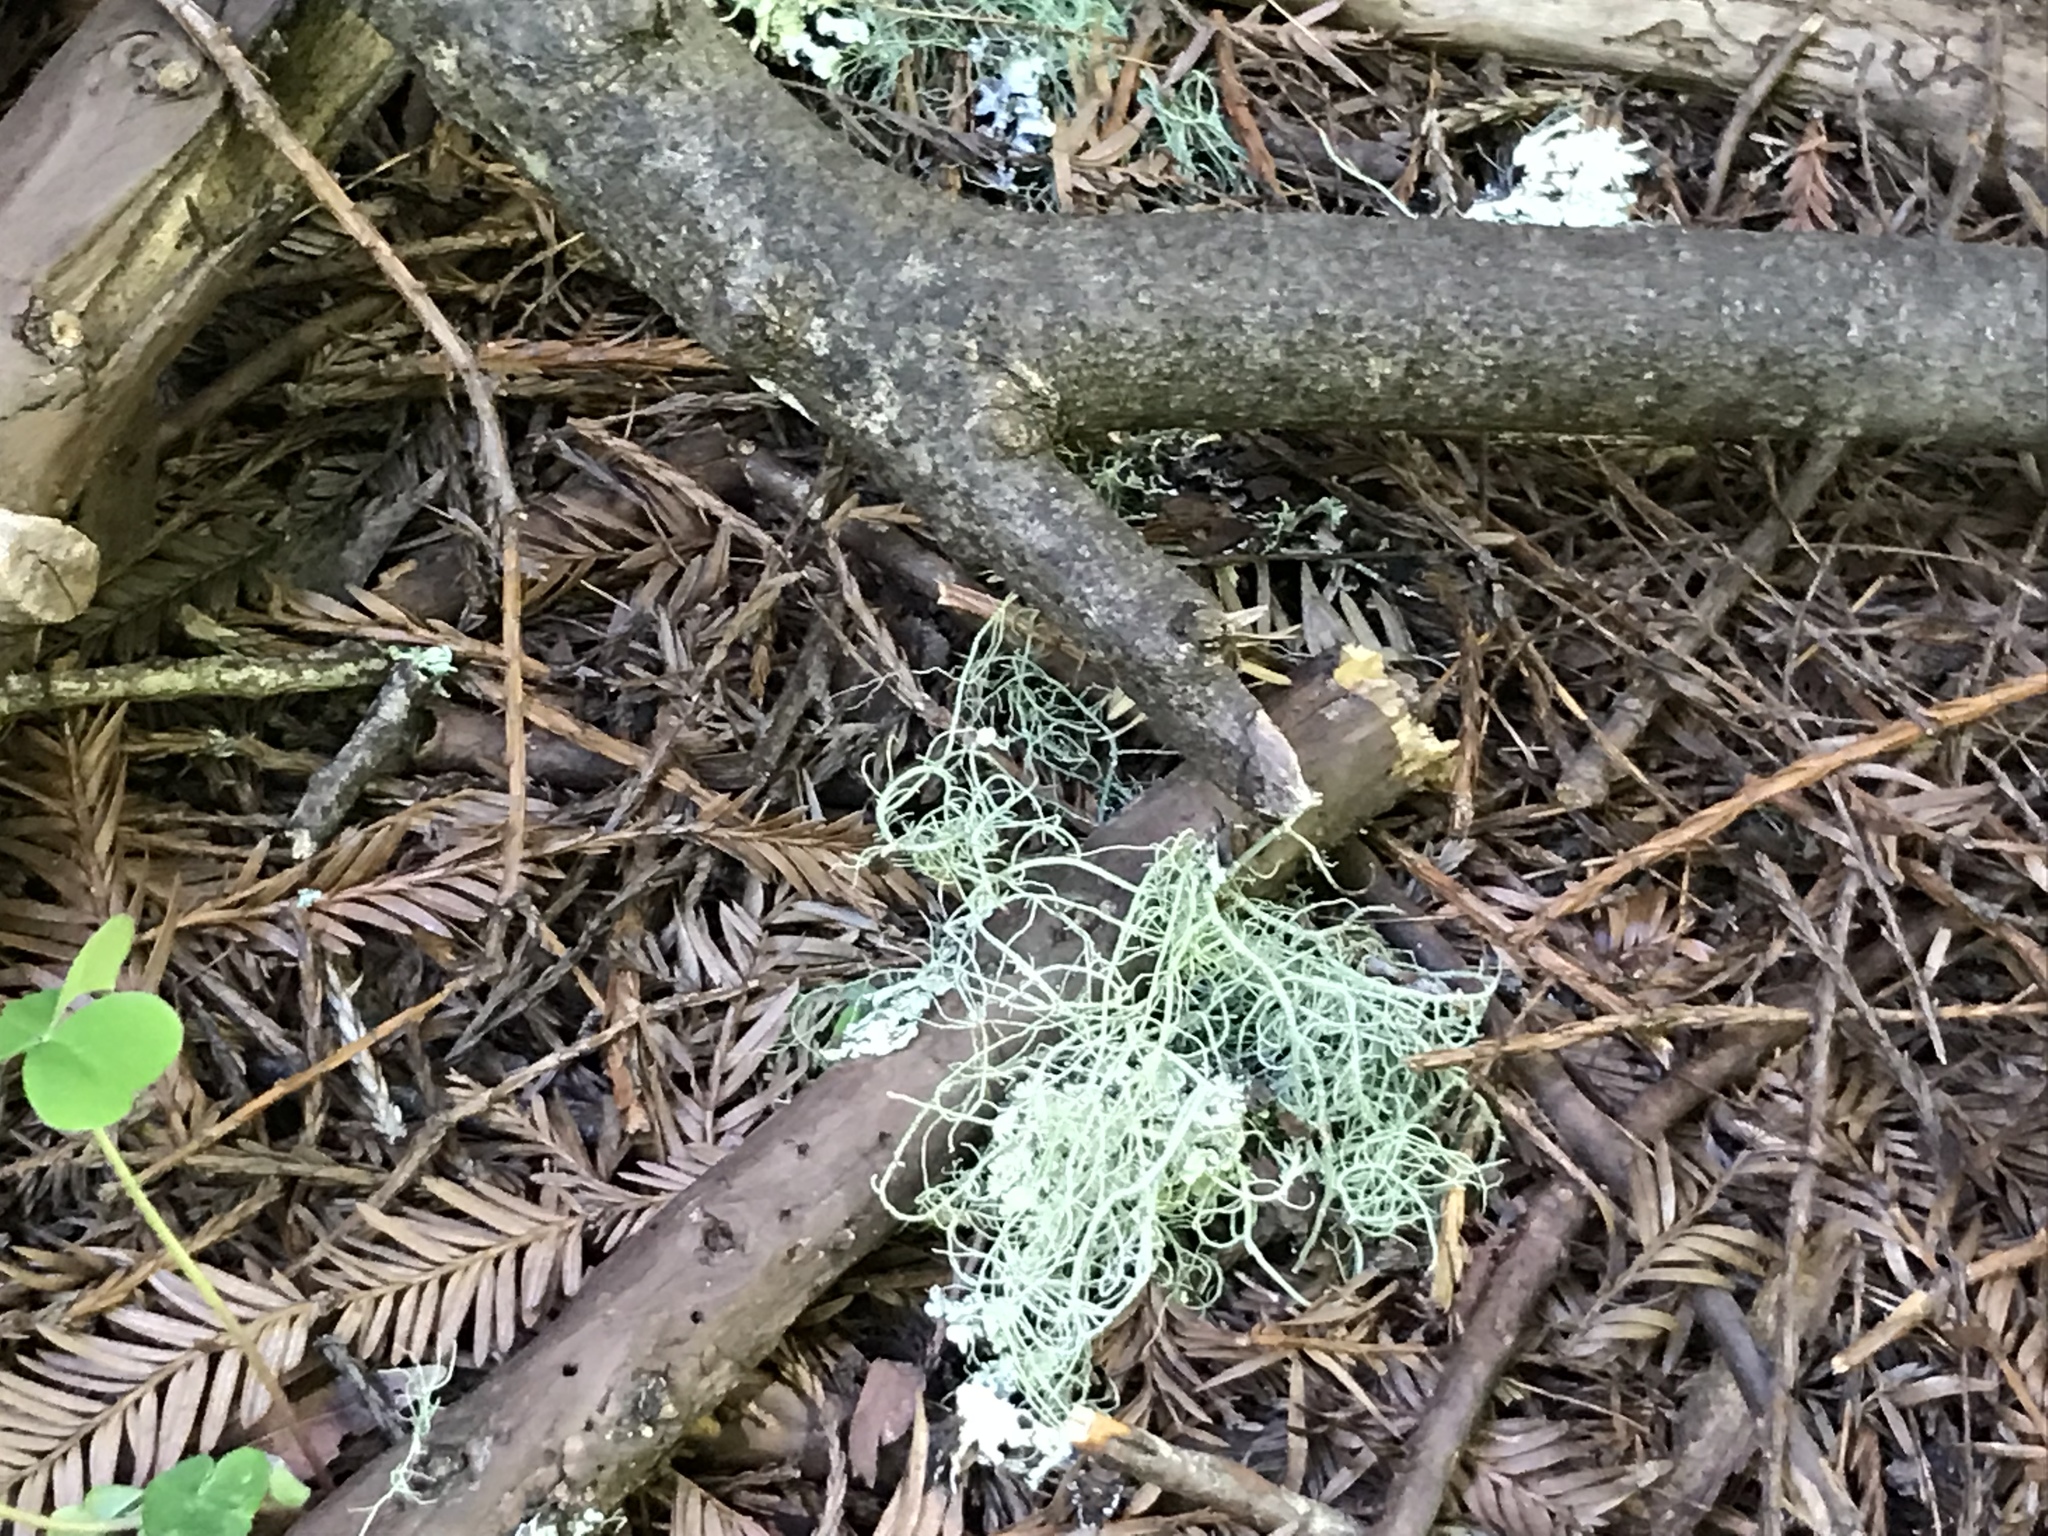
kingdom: Fungi
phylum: Ascomycota
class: Lecanoromycetes
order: Lecanorales
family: Parmeliaceae
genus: Usnea
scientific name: Usnea
